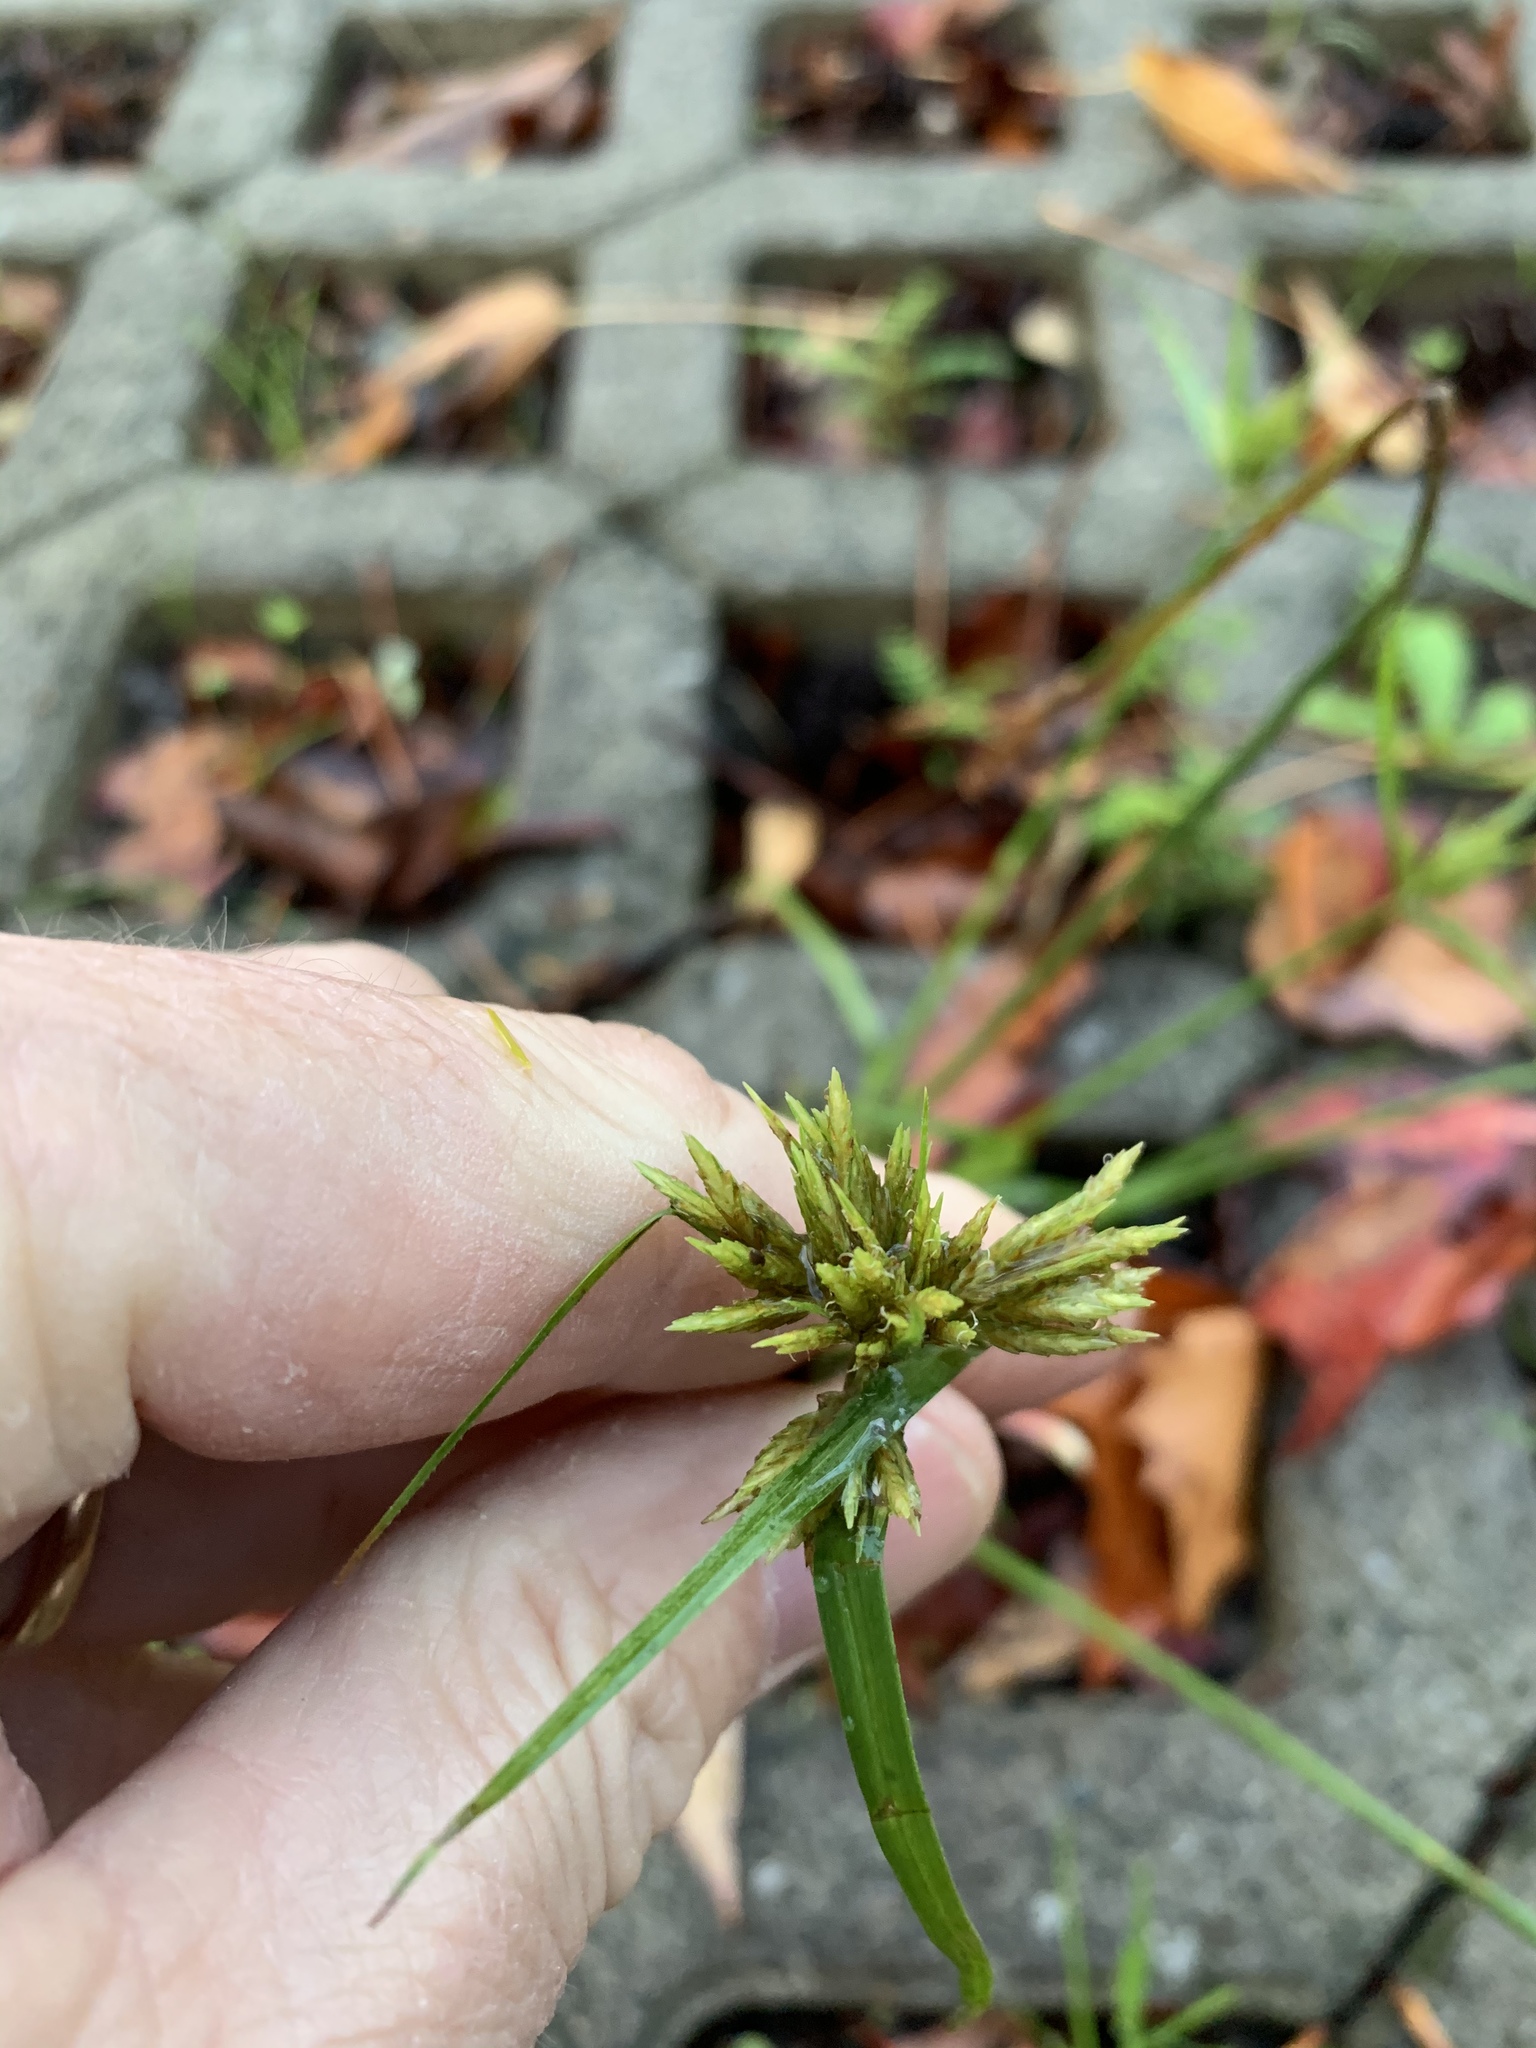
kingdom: Plantae
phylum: Tracheophyta
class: Liliopsida
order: Poales
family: Cyperaceae
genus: Cyperus
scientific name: Cyperus polystachyos
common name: Bunchy flat sedge
